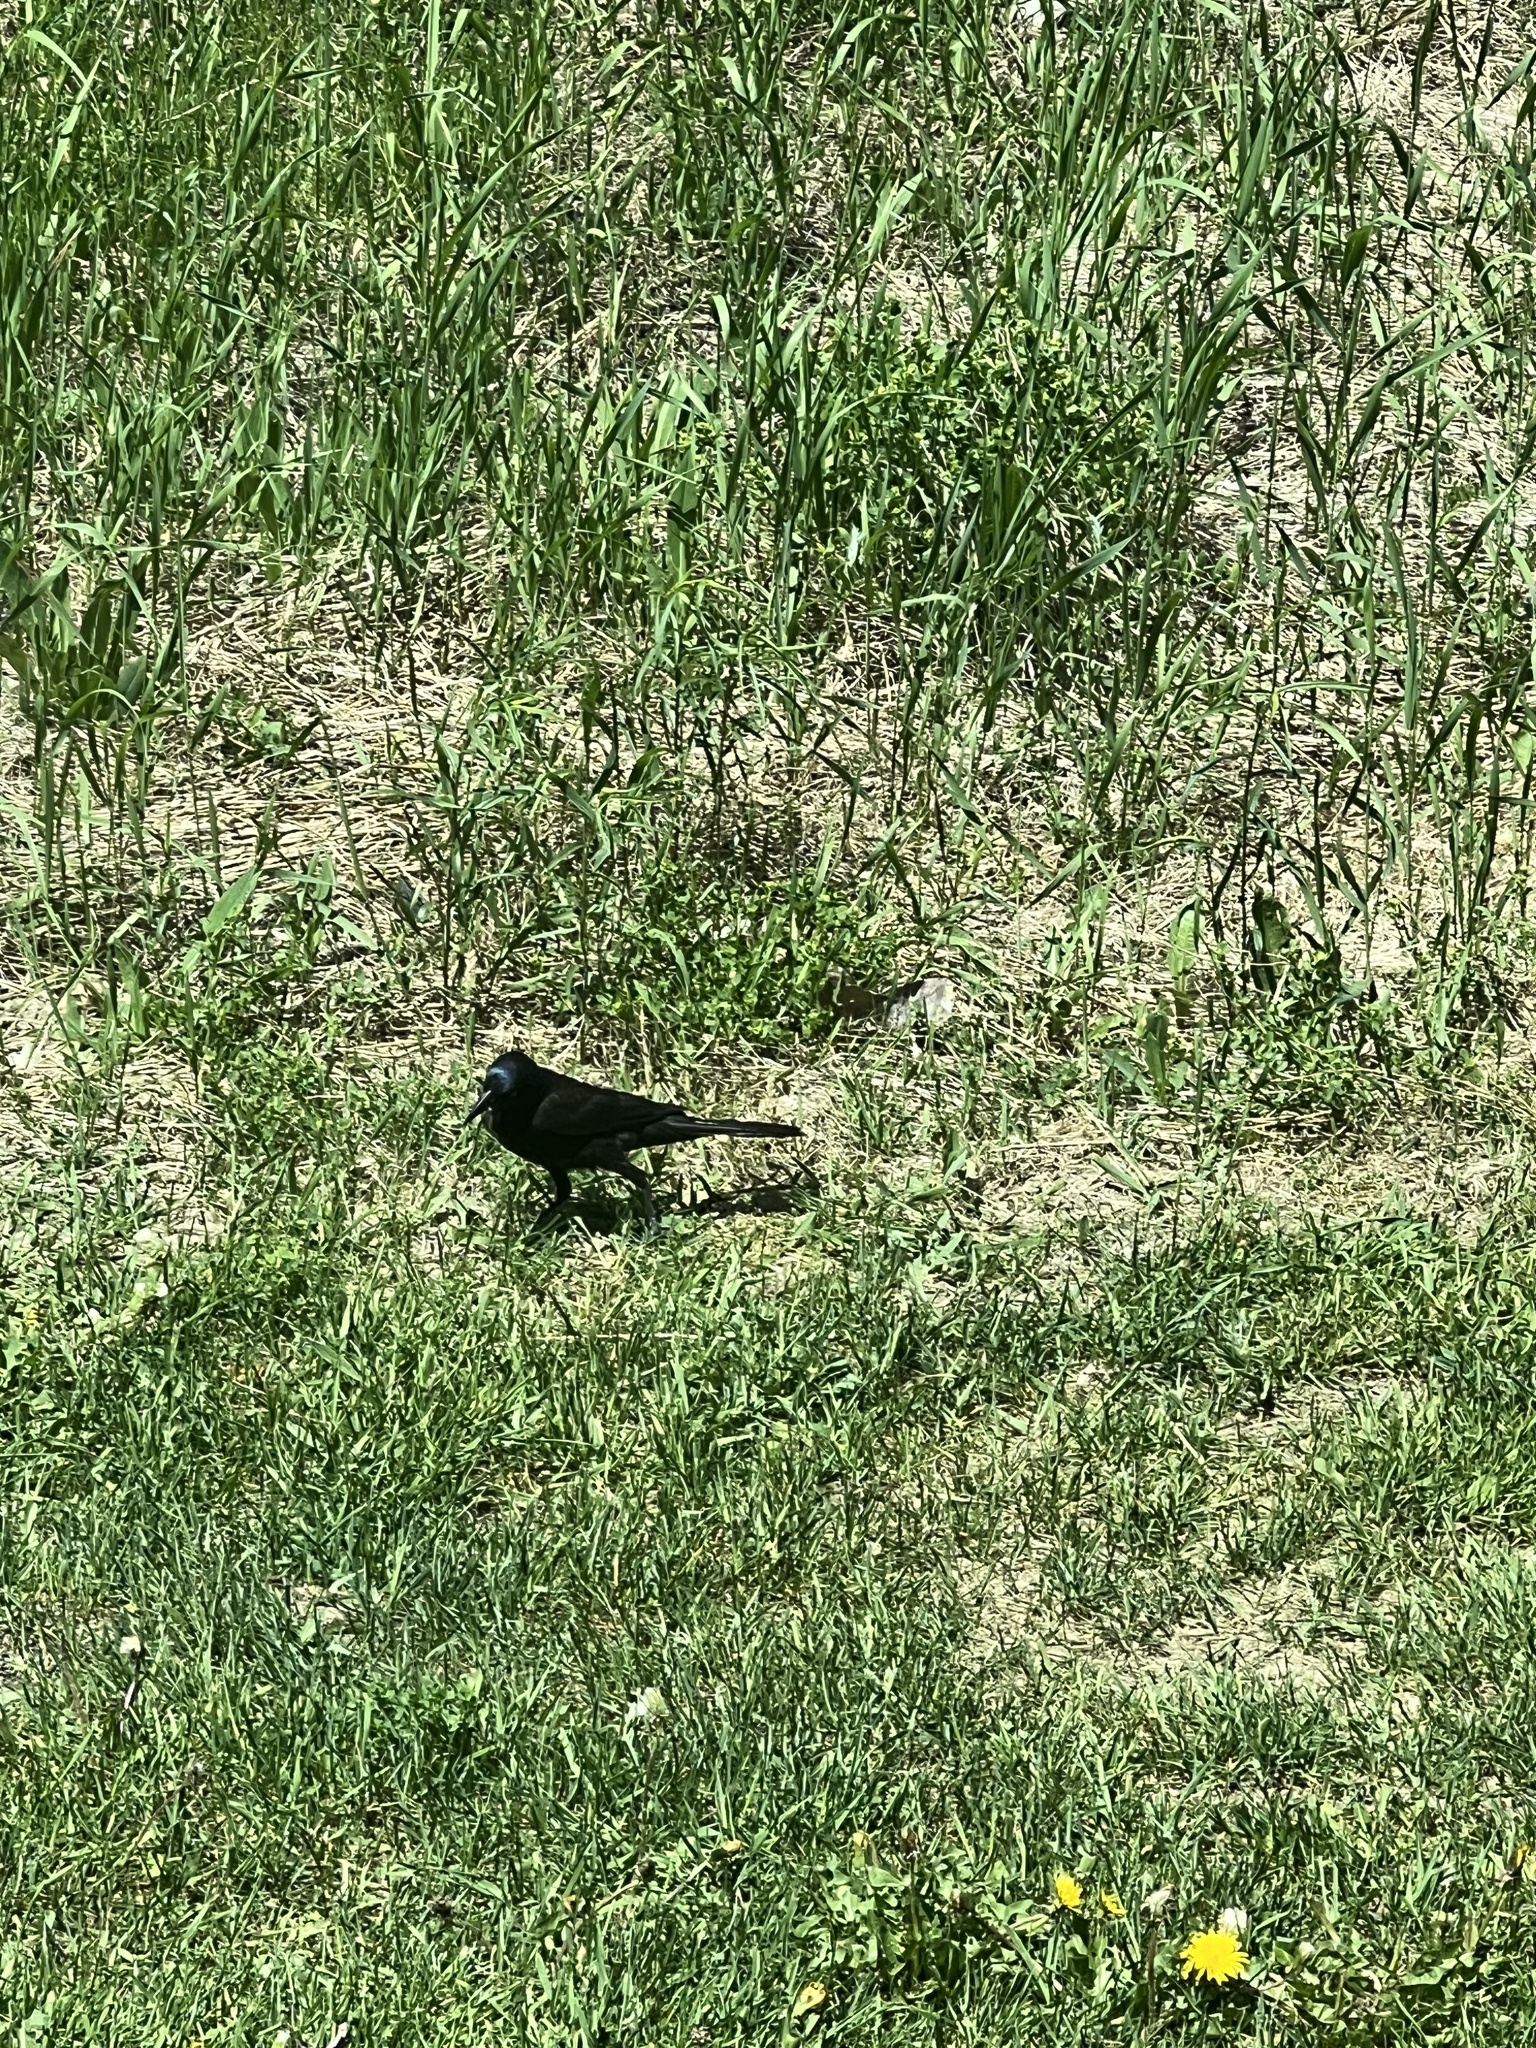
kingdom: Animalia
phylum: Chordata
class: Aves
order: Passeriformes
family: Icteridae
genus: Quiscalus
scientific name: Quiscalus quiscula
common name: Common grackle
